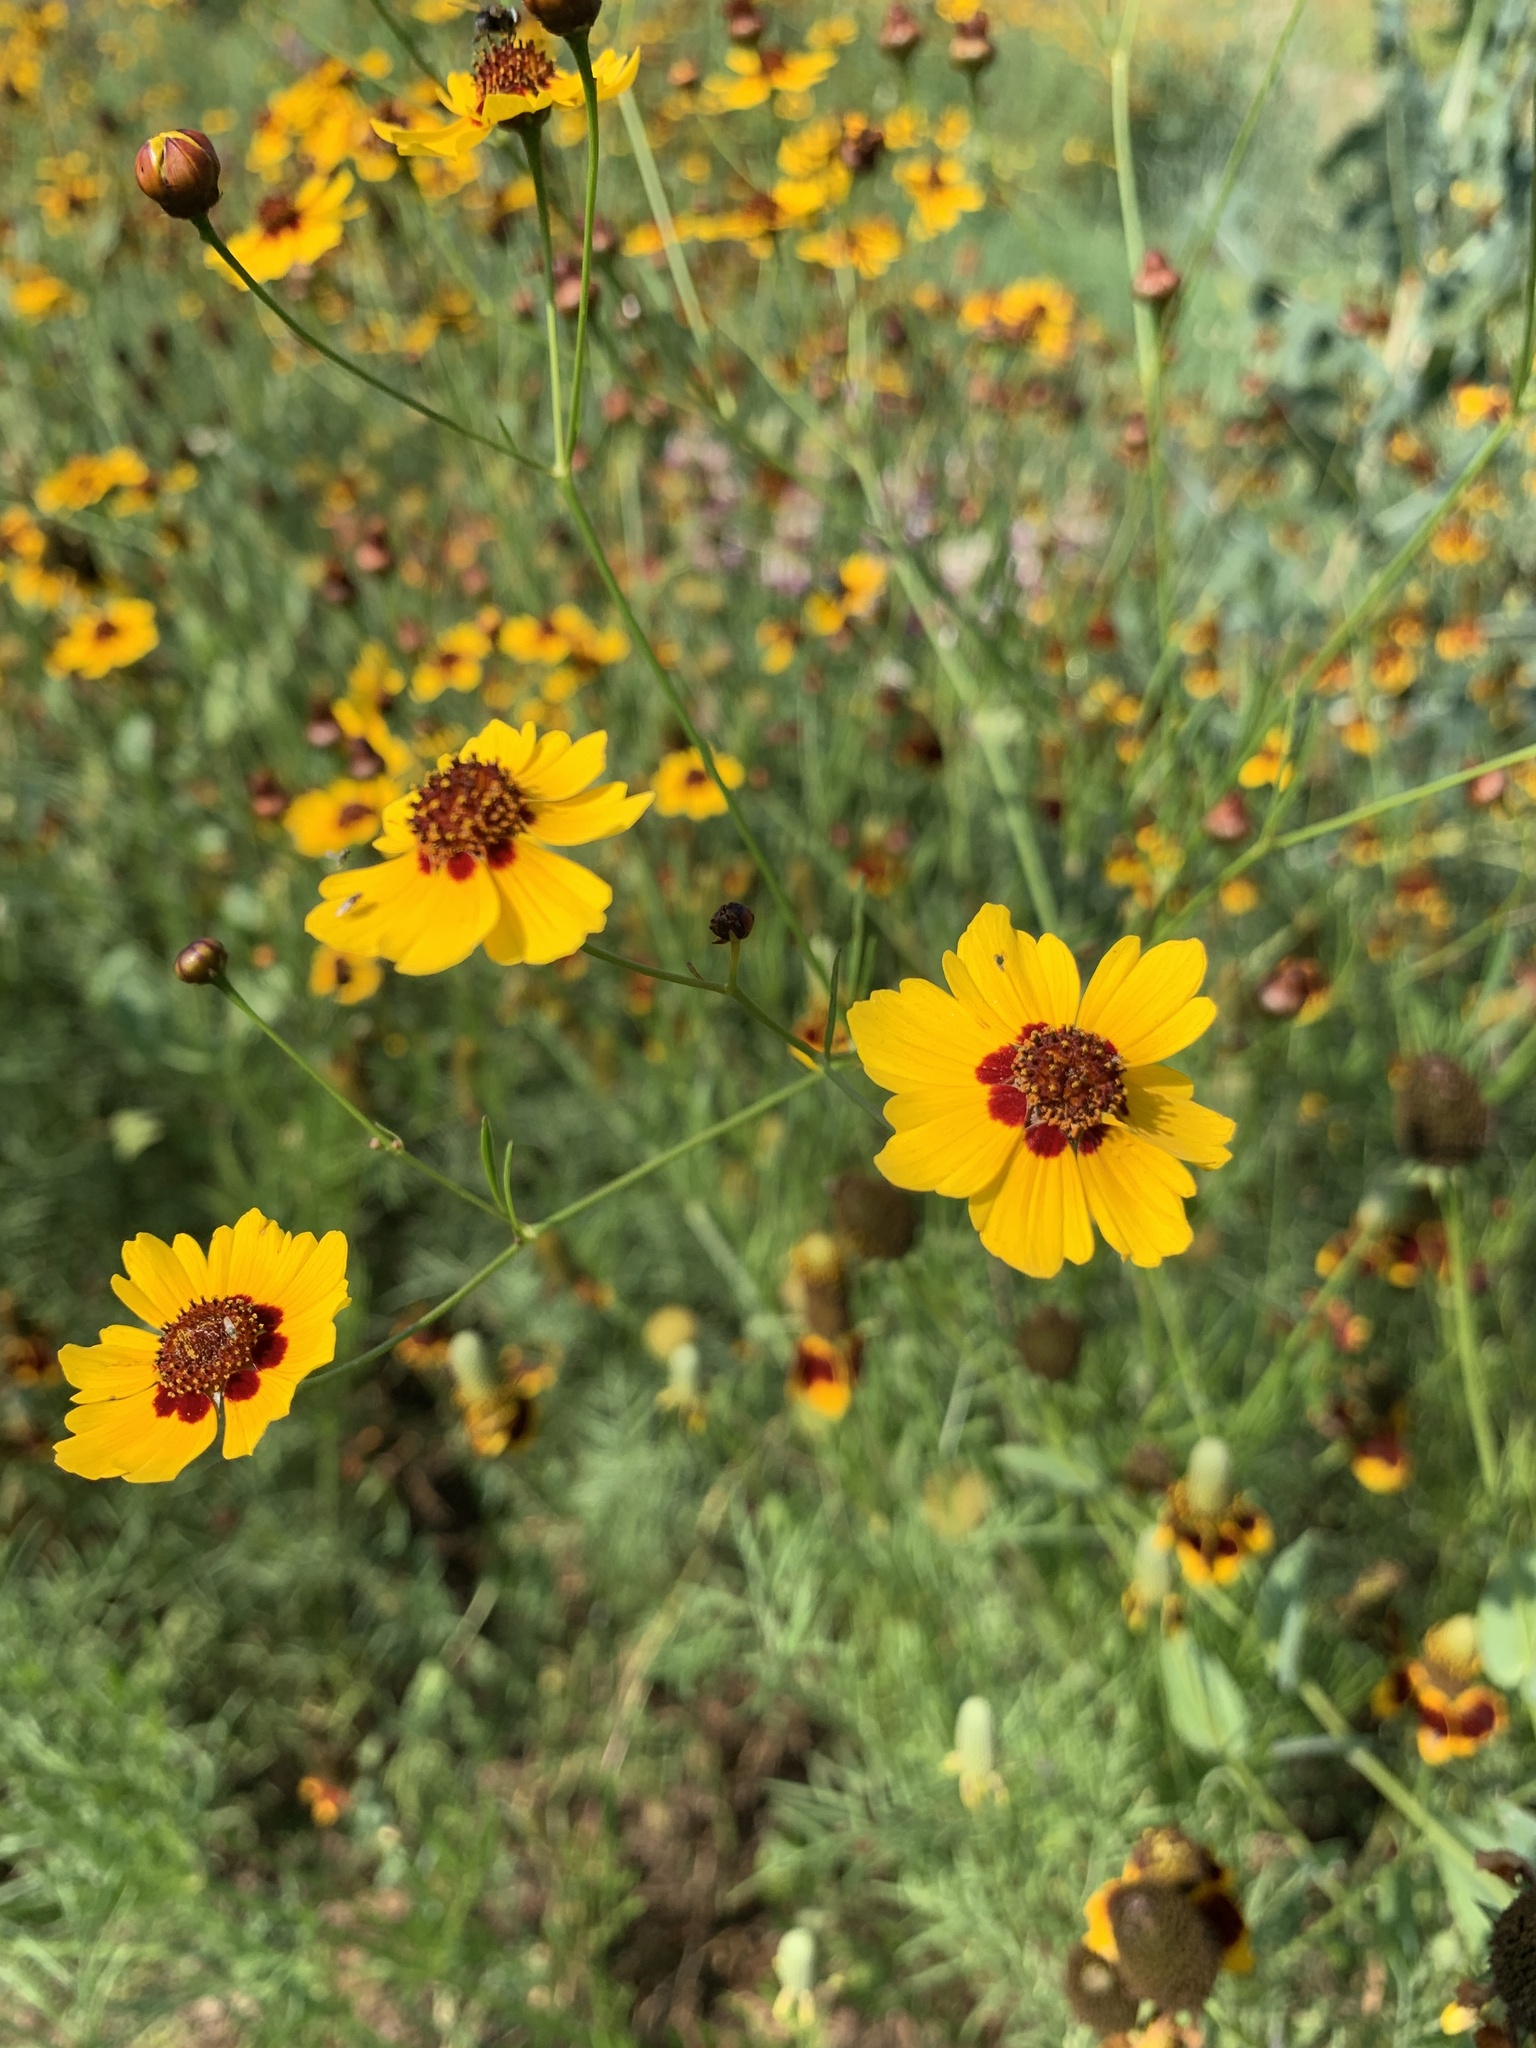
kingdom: Plantae
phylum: Tracheophyta
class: Magnoliopsida
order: Asterales
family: Asteraceae
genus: Coreopsis
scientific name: Coreopsis tinctoria
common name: Garden tickseed
